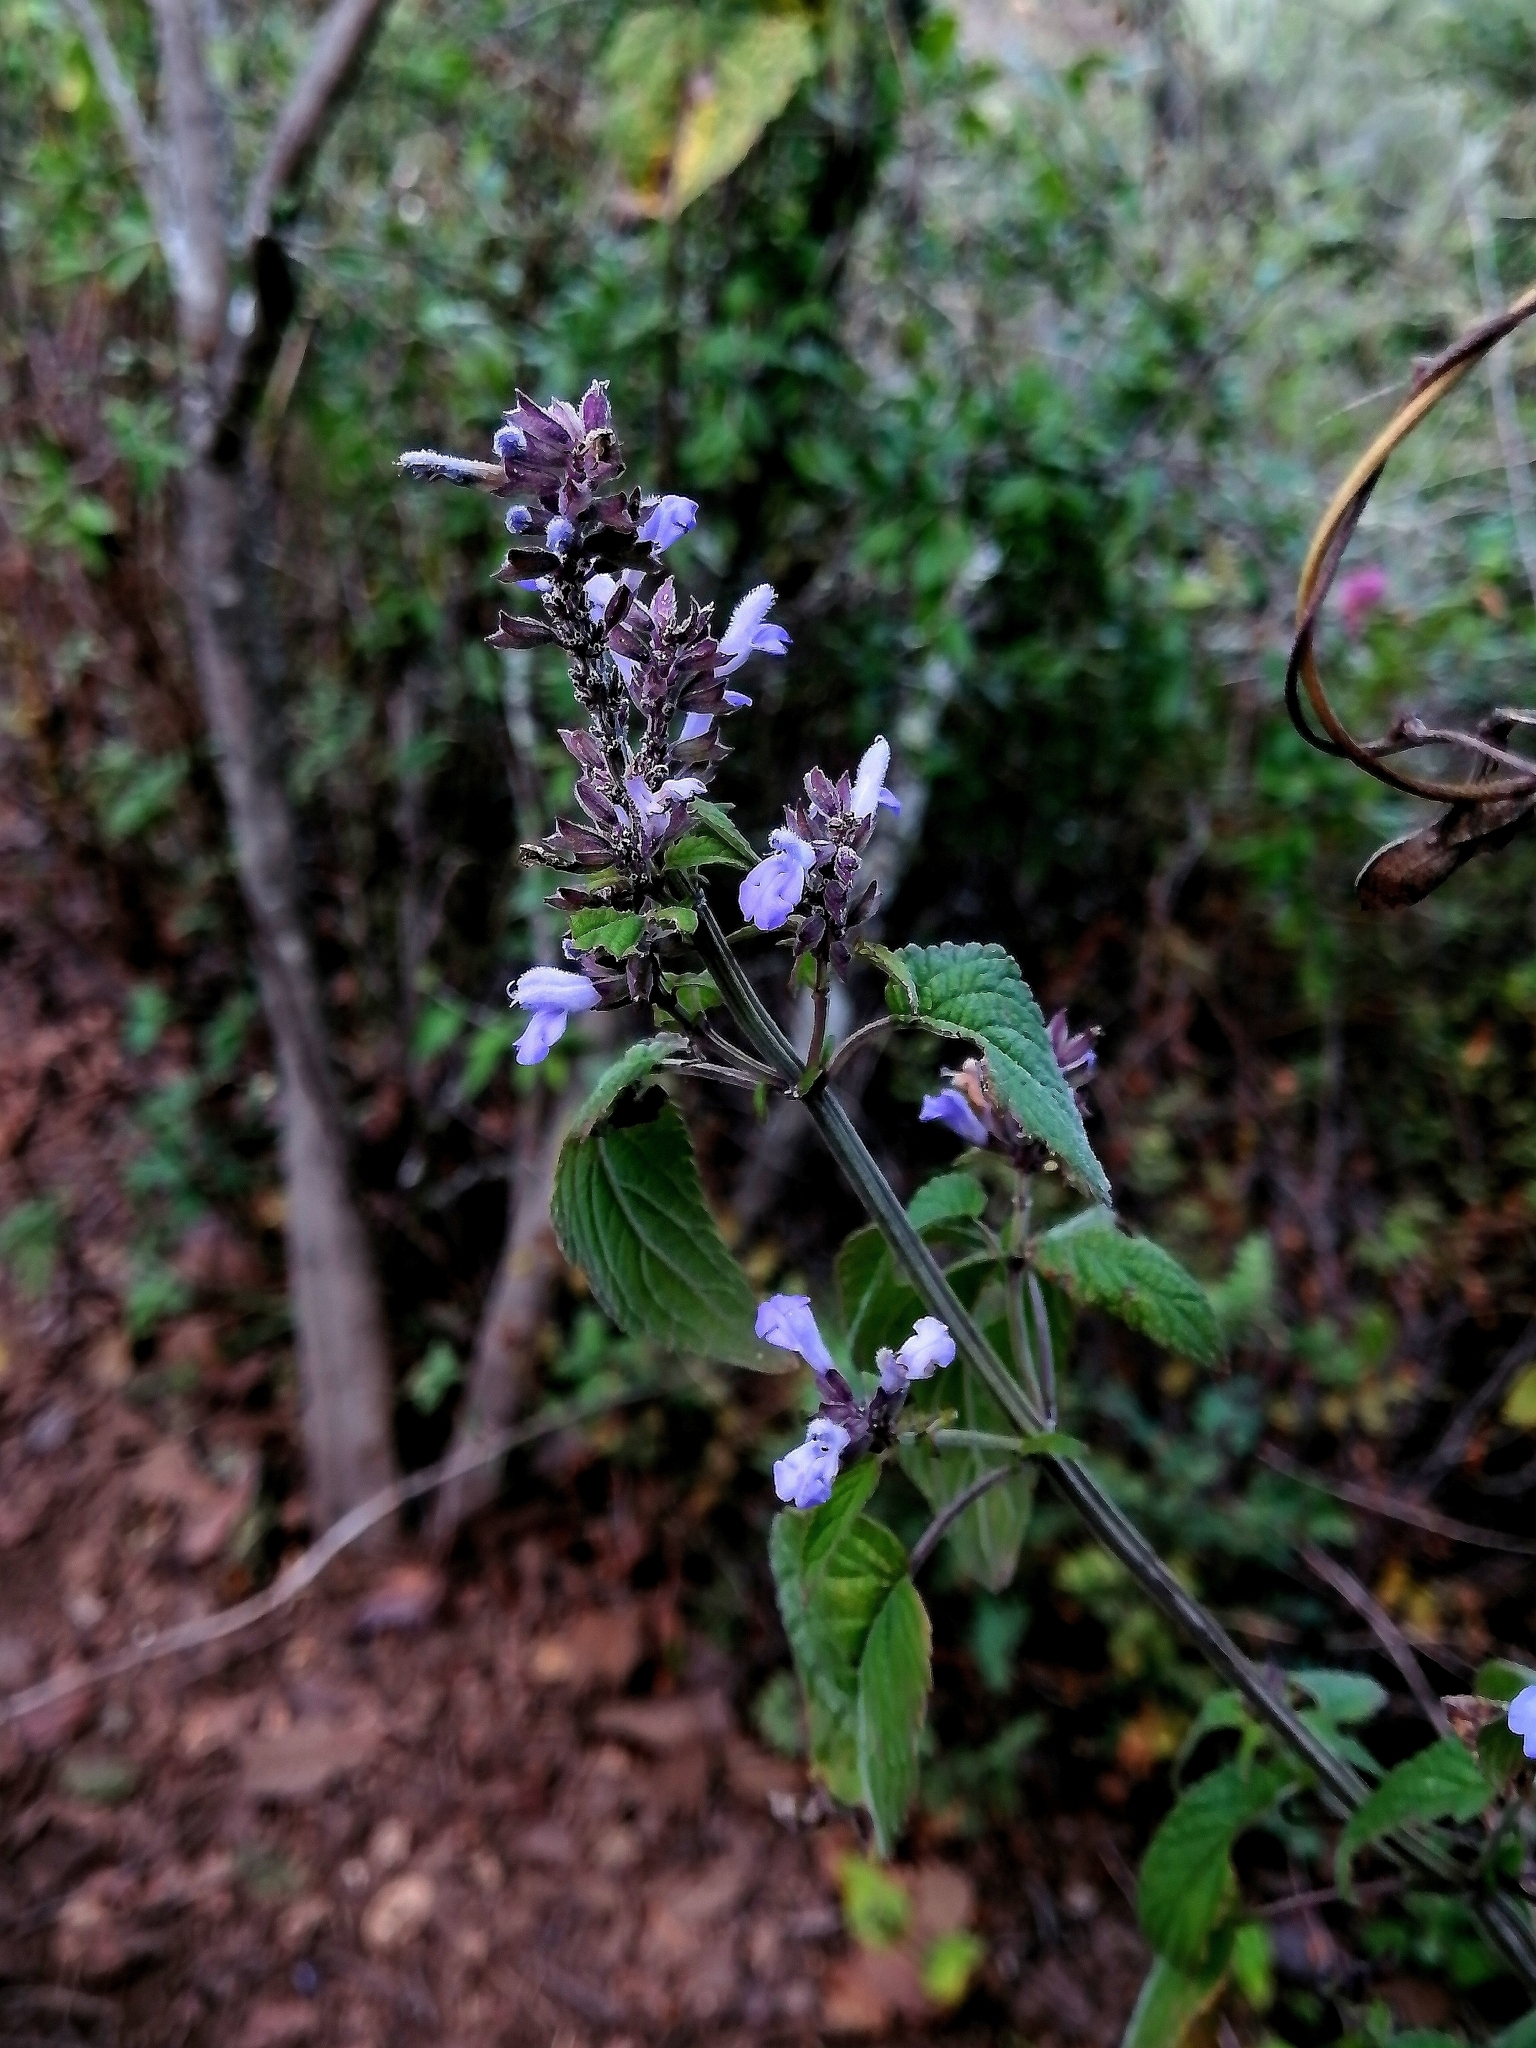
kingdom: Plantae
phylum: Tracheophyta
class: Magnoliopsida
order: Lamiales
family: Lamiaceae
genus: Salvia
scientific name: Salvia polystachia
